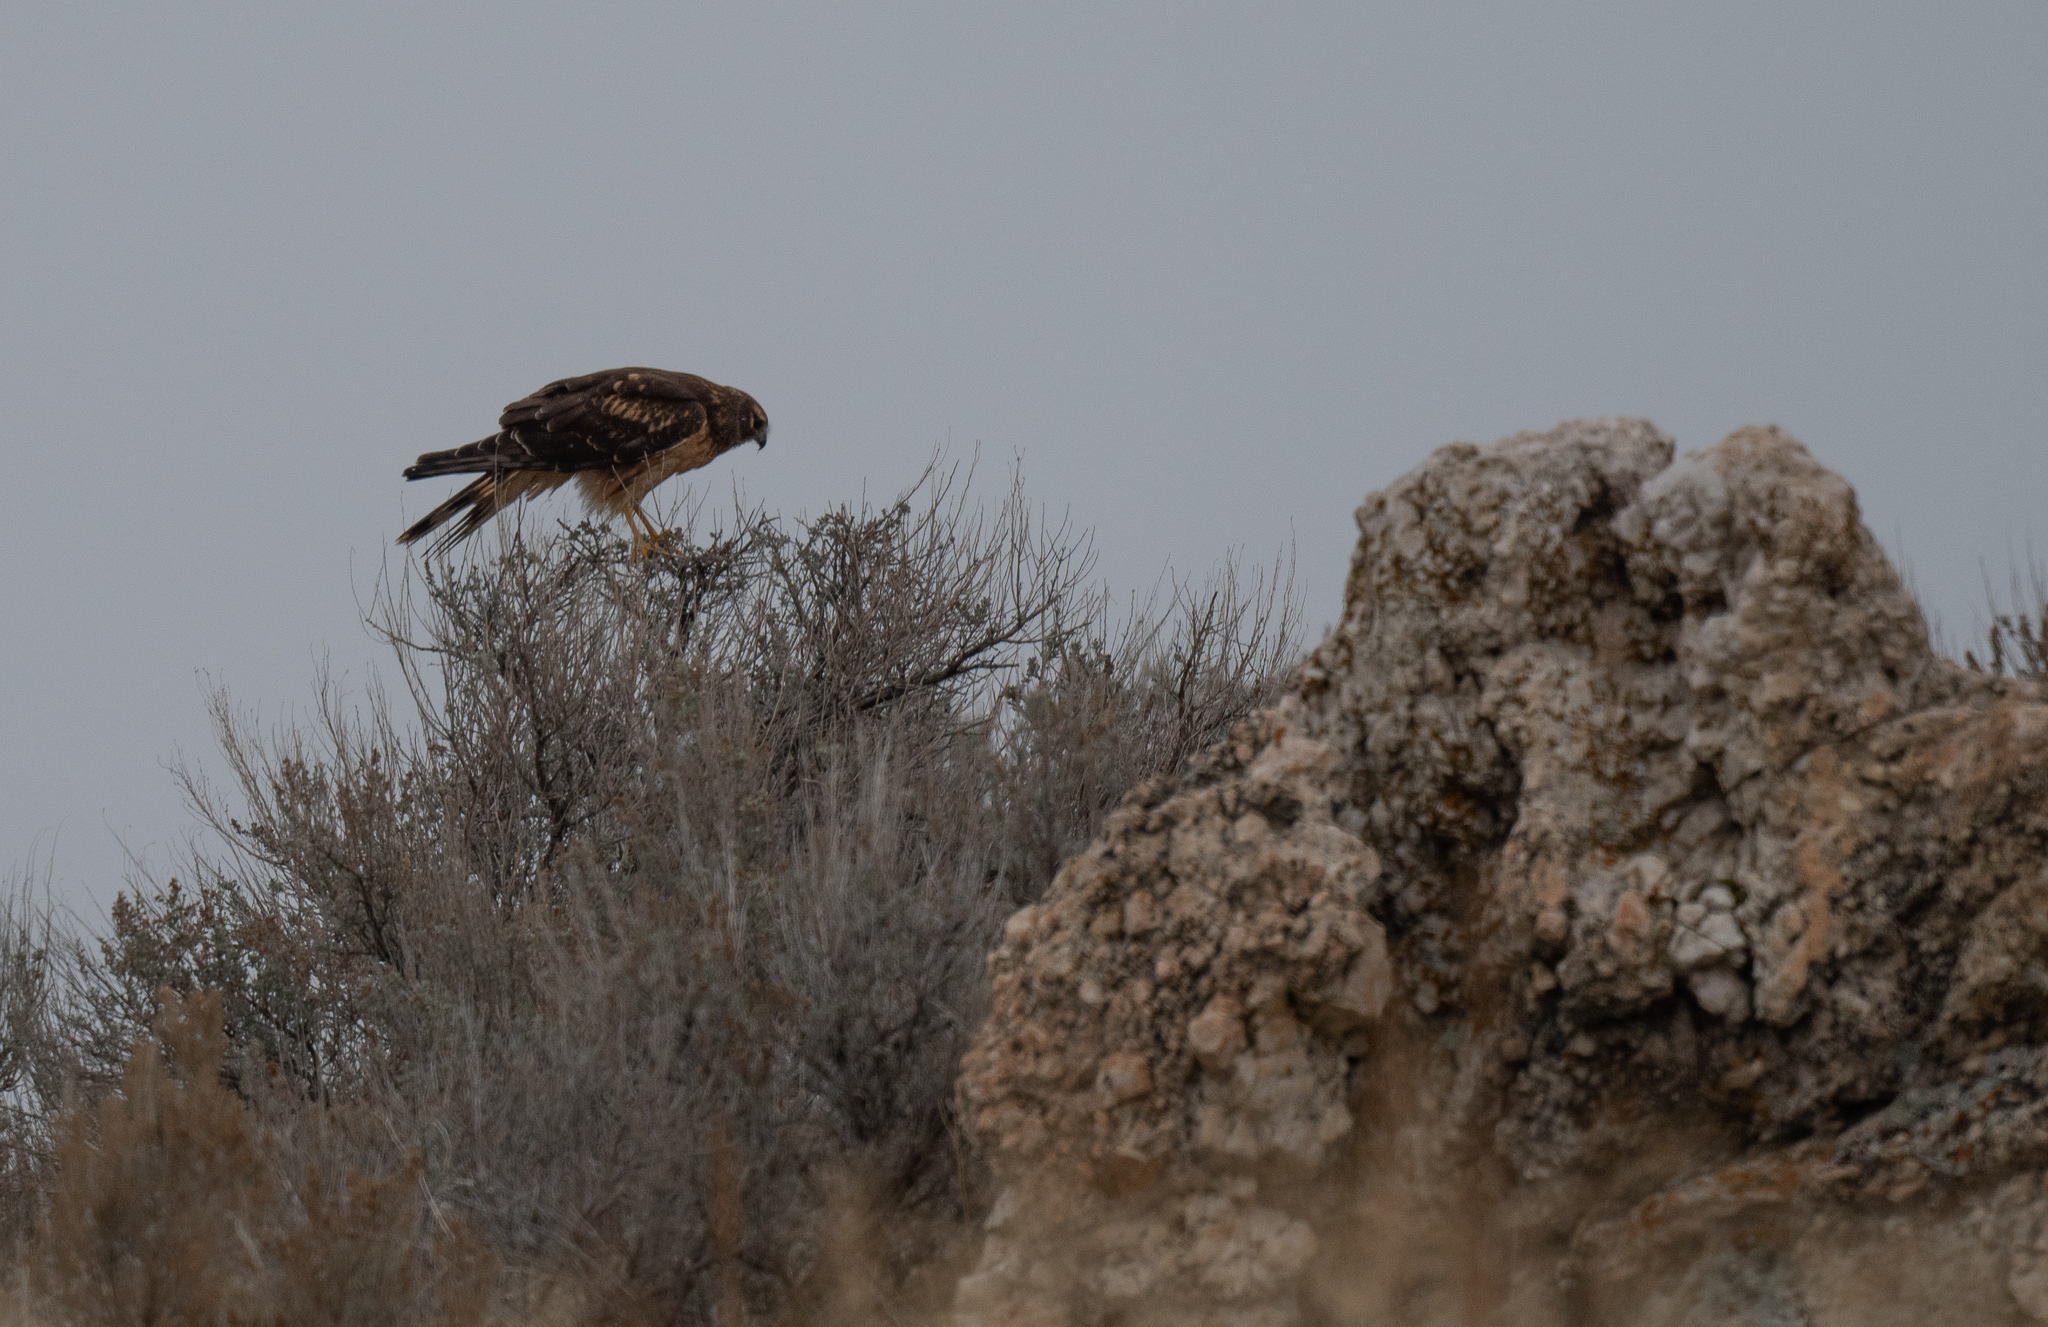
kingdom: Animalia
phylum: Chordata
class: Aves
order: Accipitriformes
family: Accipitridae
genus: Circus
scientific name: Circus cyaneus
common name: Hen harrier
